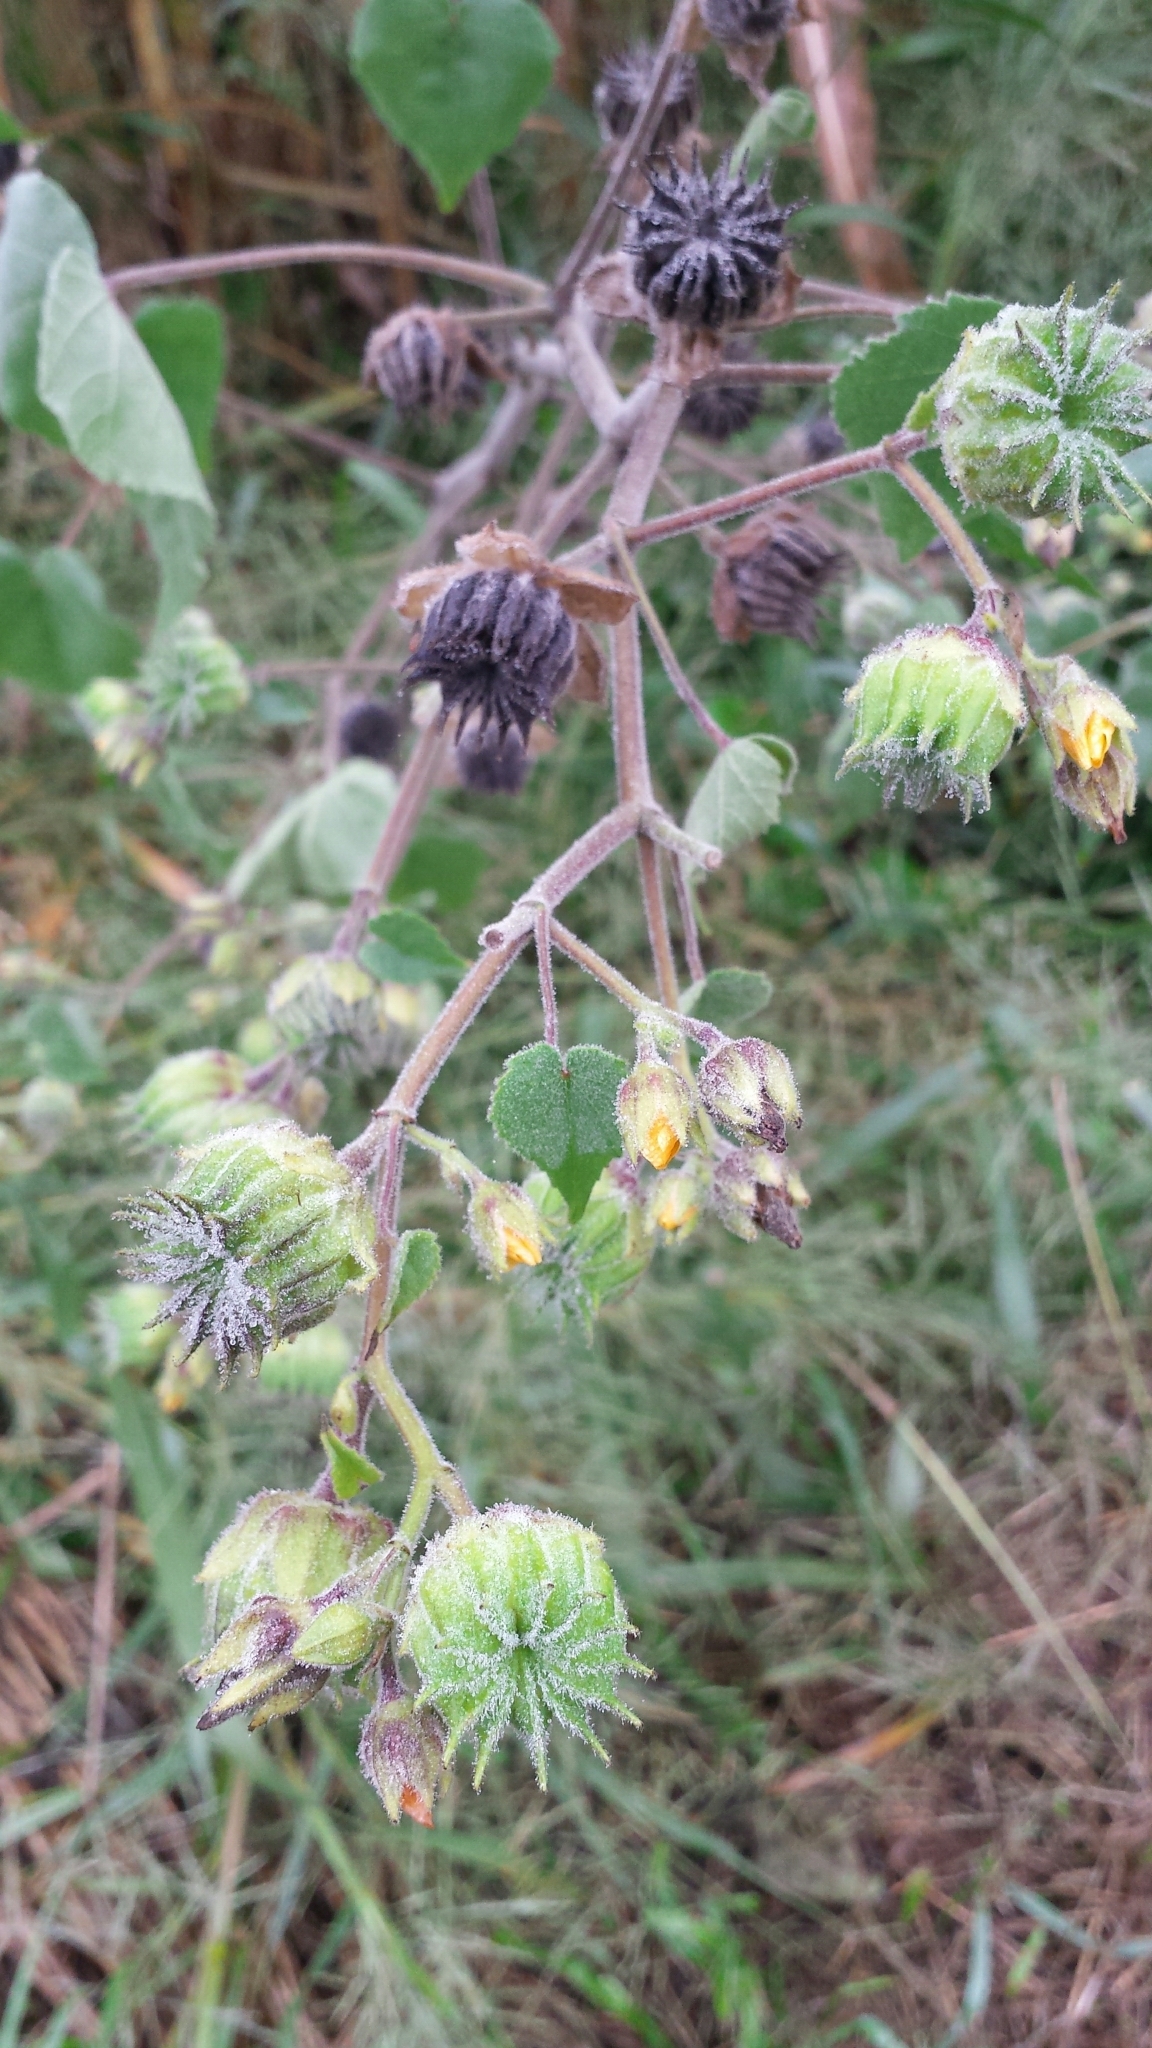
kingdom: Plantae
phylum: Tracheophyta
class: Magnoliopsida
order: Malvales
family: Malvaceae
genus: Abutilon
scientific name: Abutilon theophrasti
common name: Velvetleaf
